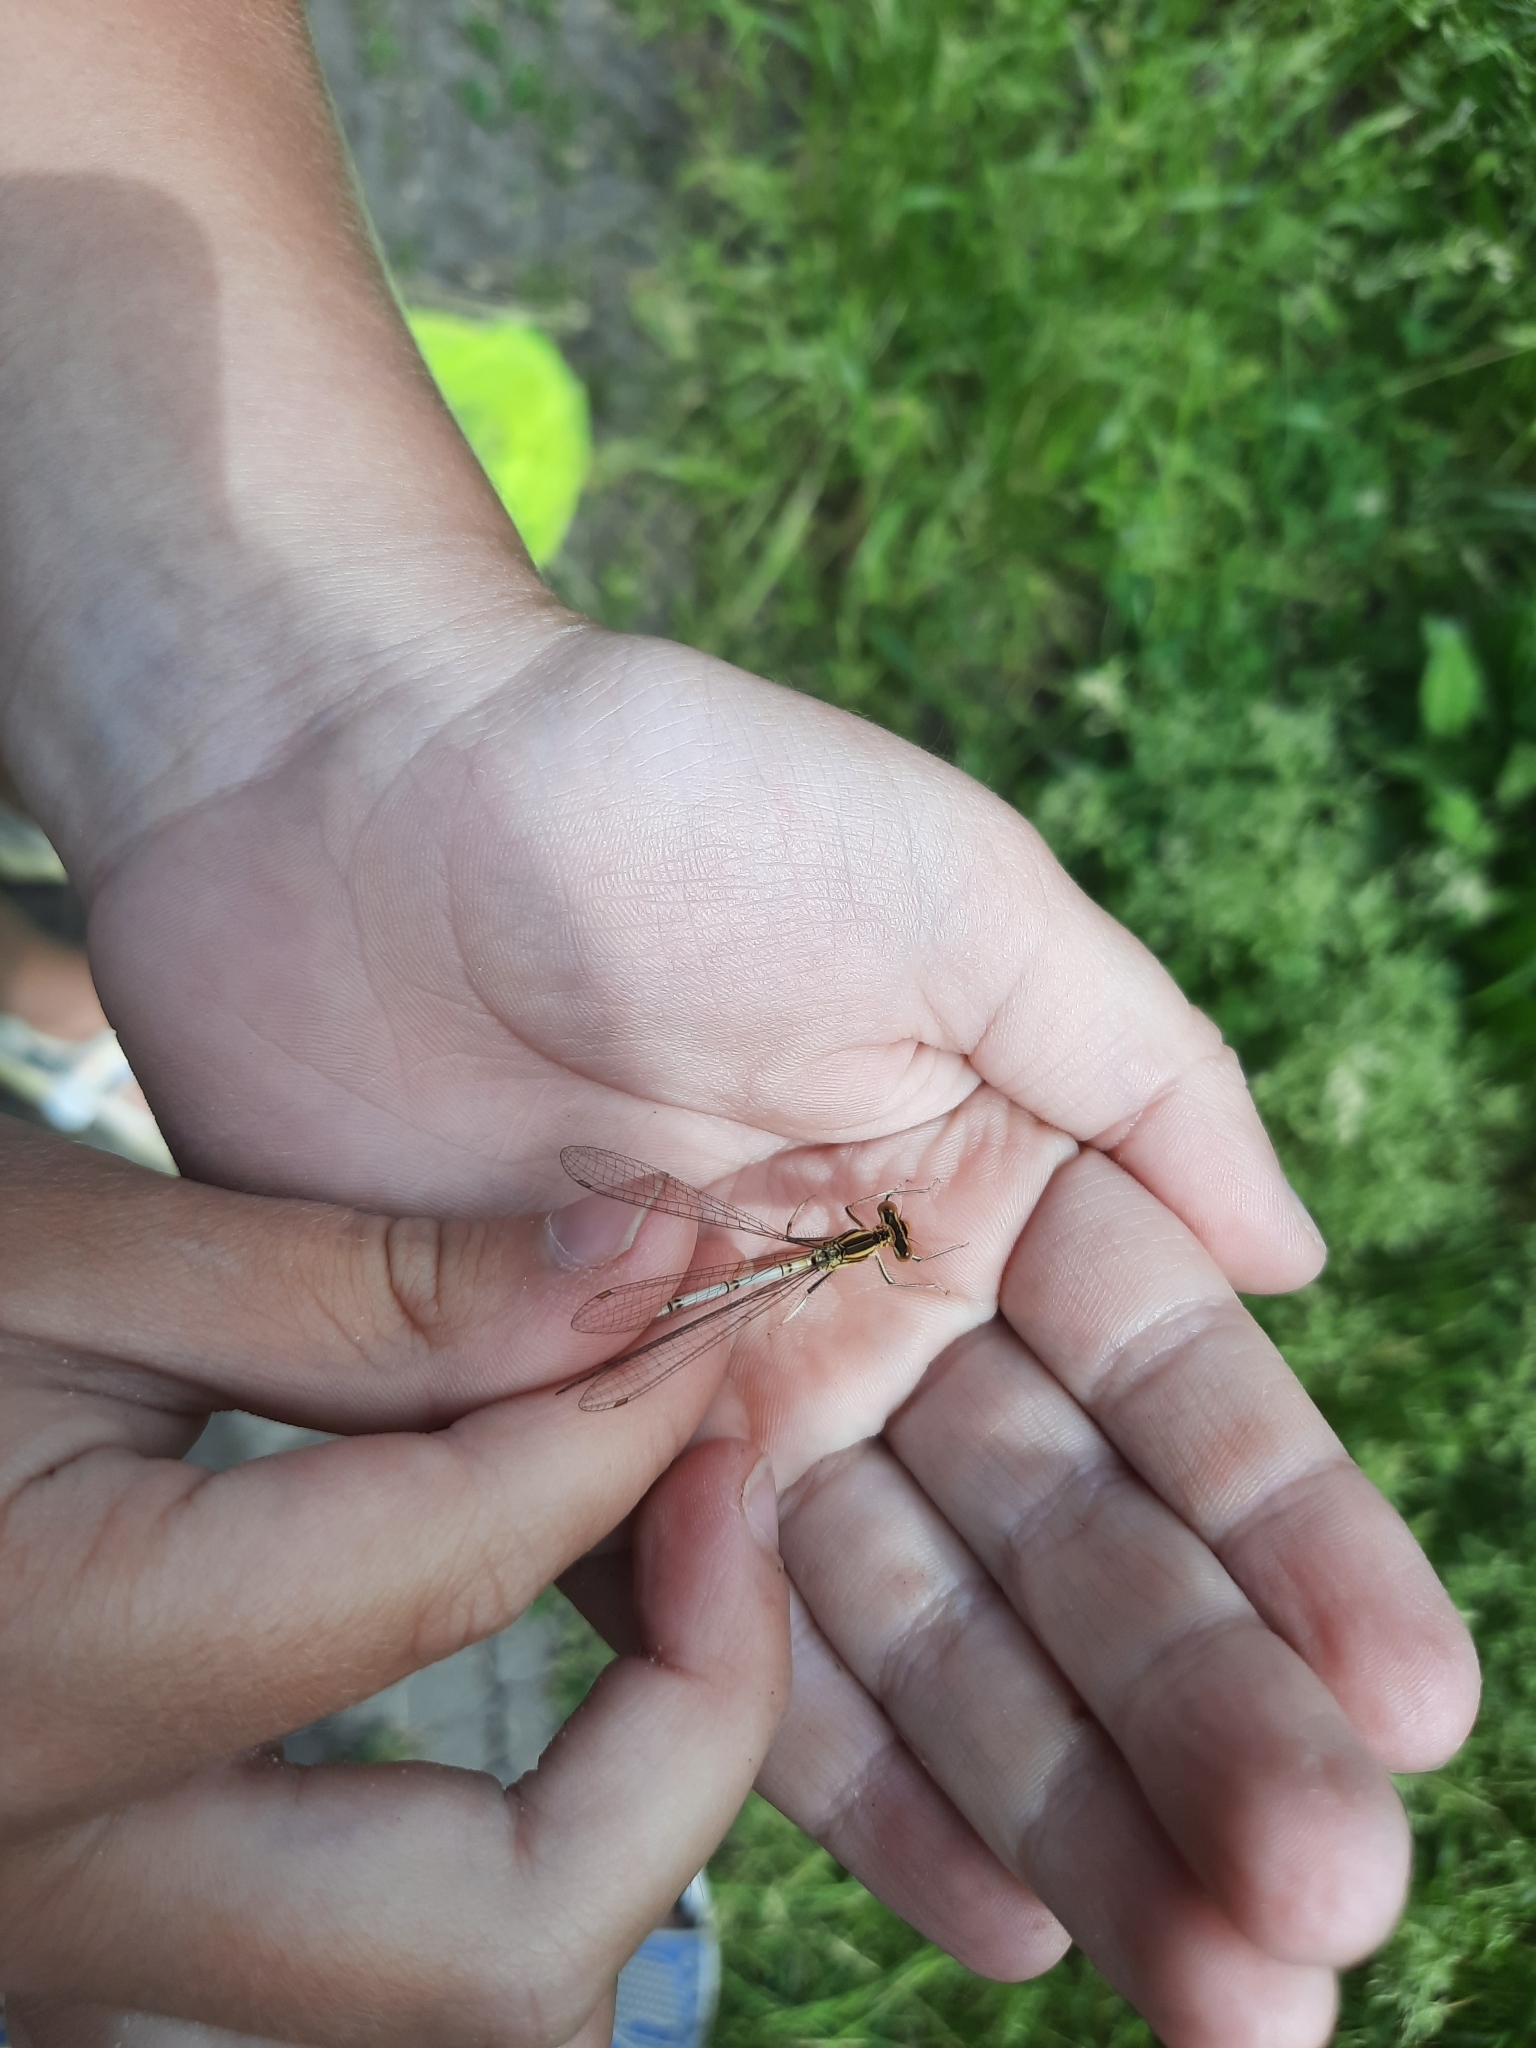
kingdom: Animalia
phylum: Arthropoda
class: Insecta
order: Odonata
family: Platycnemididae
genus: Platycnemis
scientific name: Platycnemis pennipes
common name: White-legged damselfly
